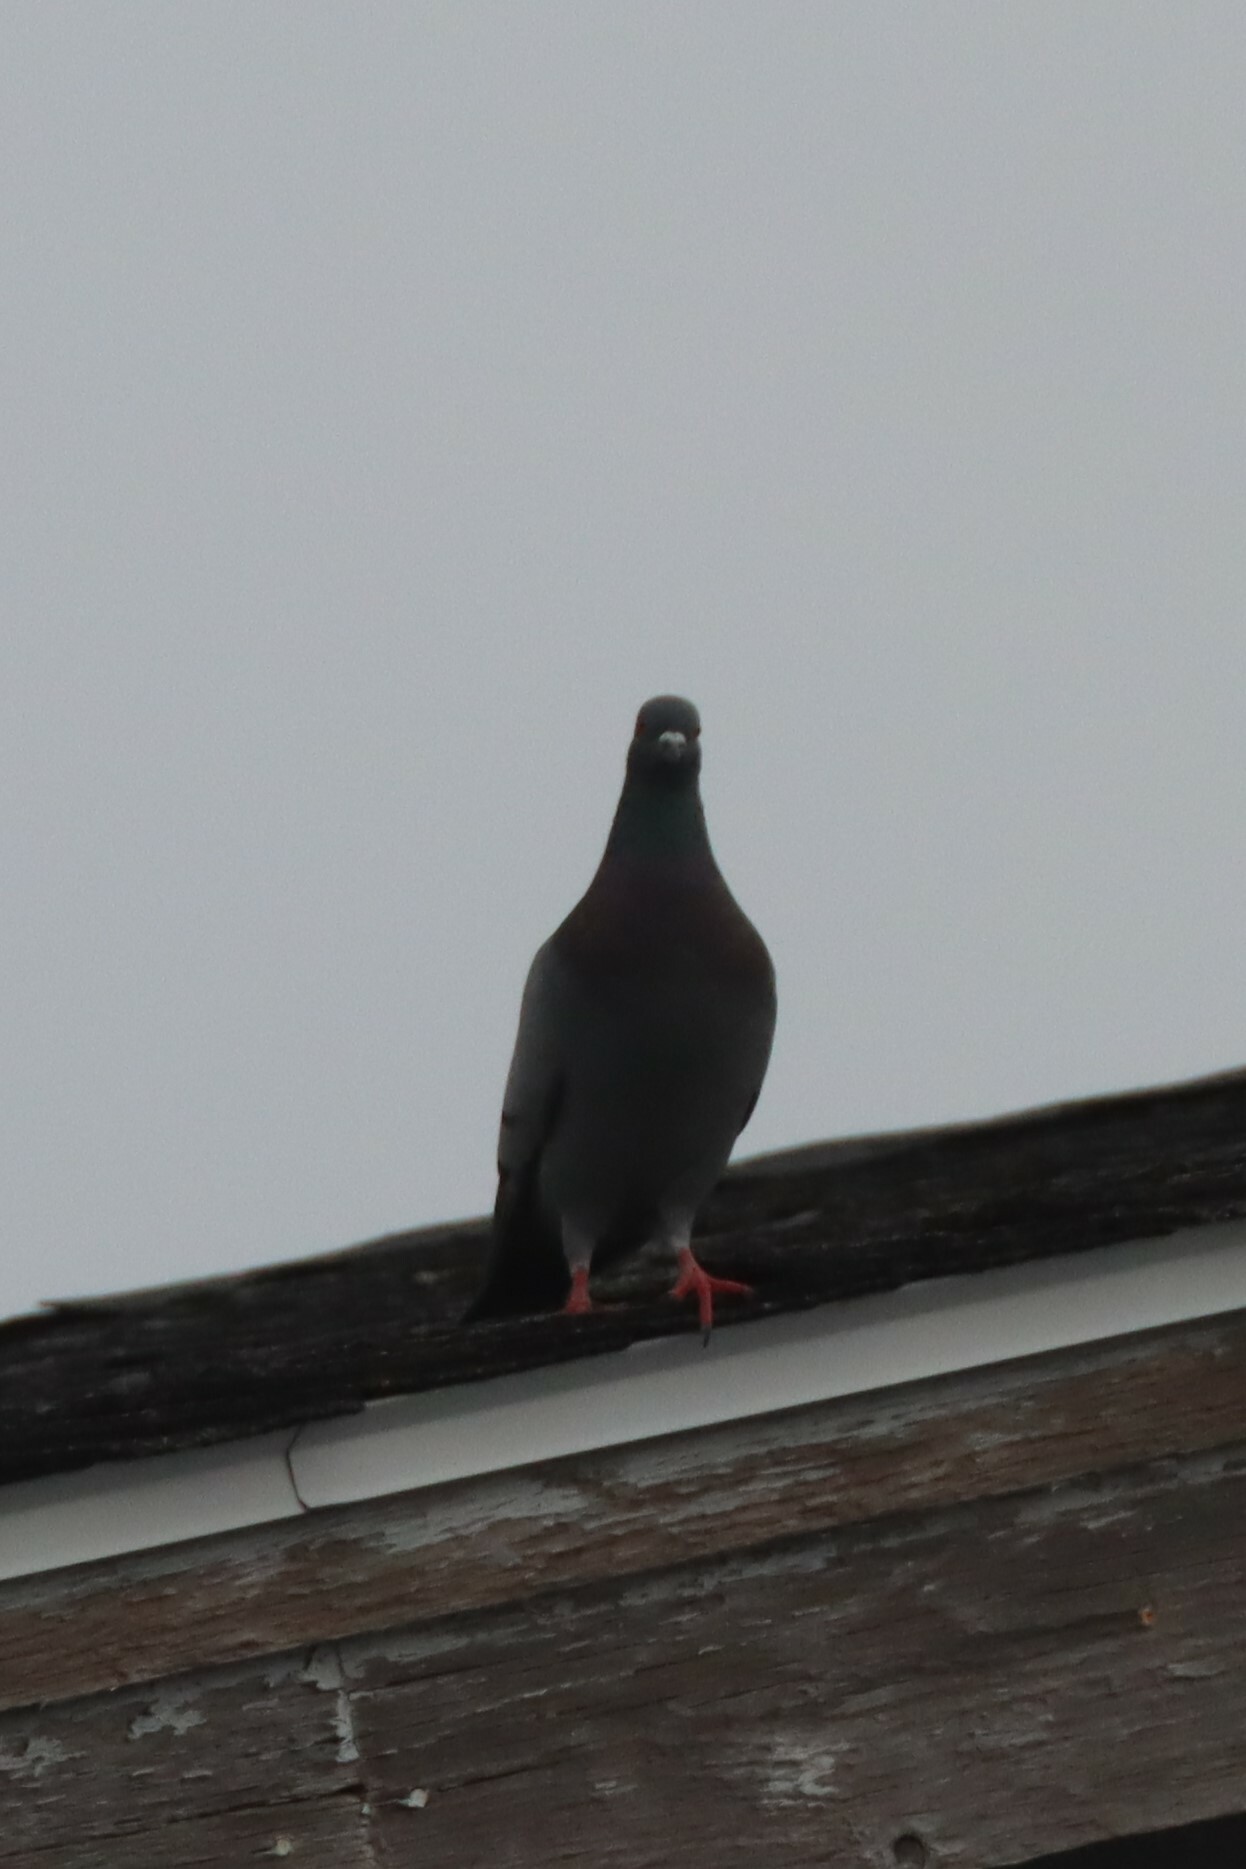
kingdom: Animalia
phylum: Chordata
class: Aves
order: Columbiformes
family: Columbidae
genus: Columba
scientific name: Columba livia
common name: Rock pigeon
